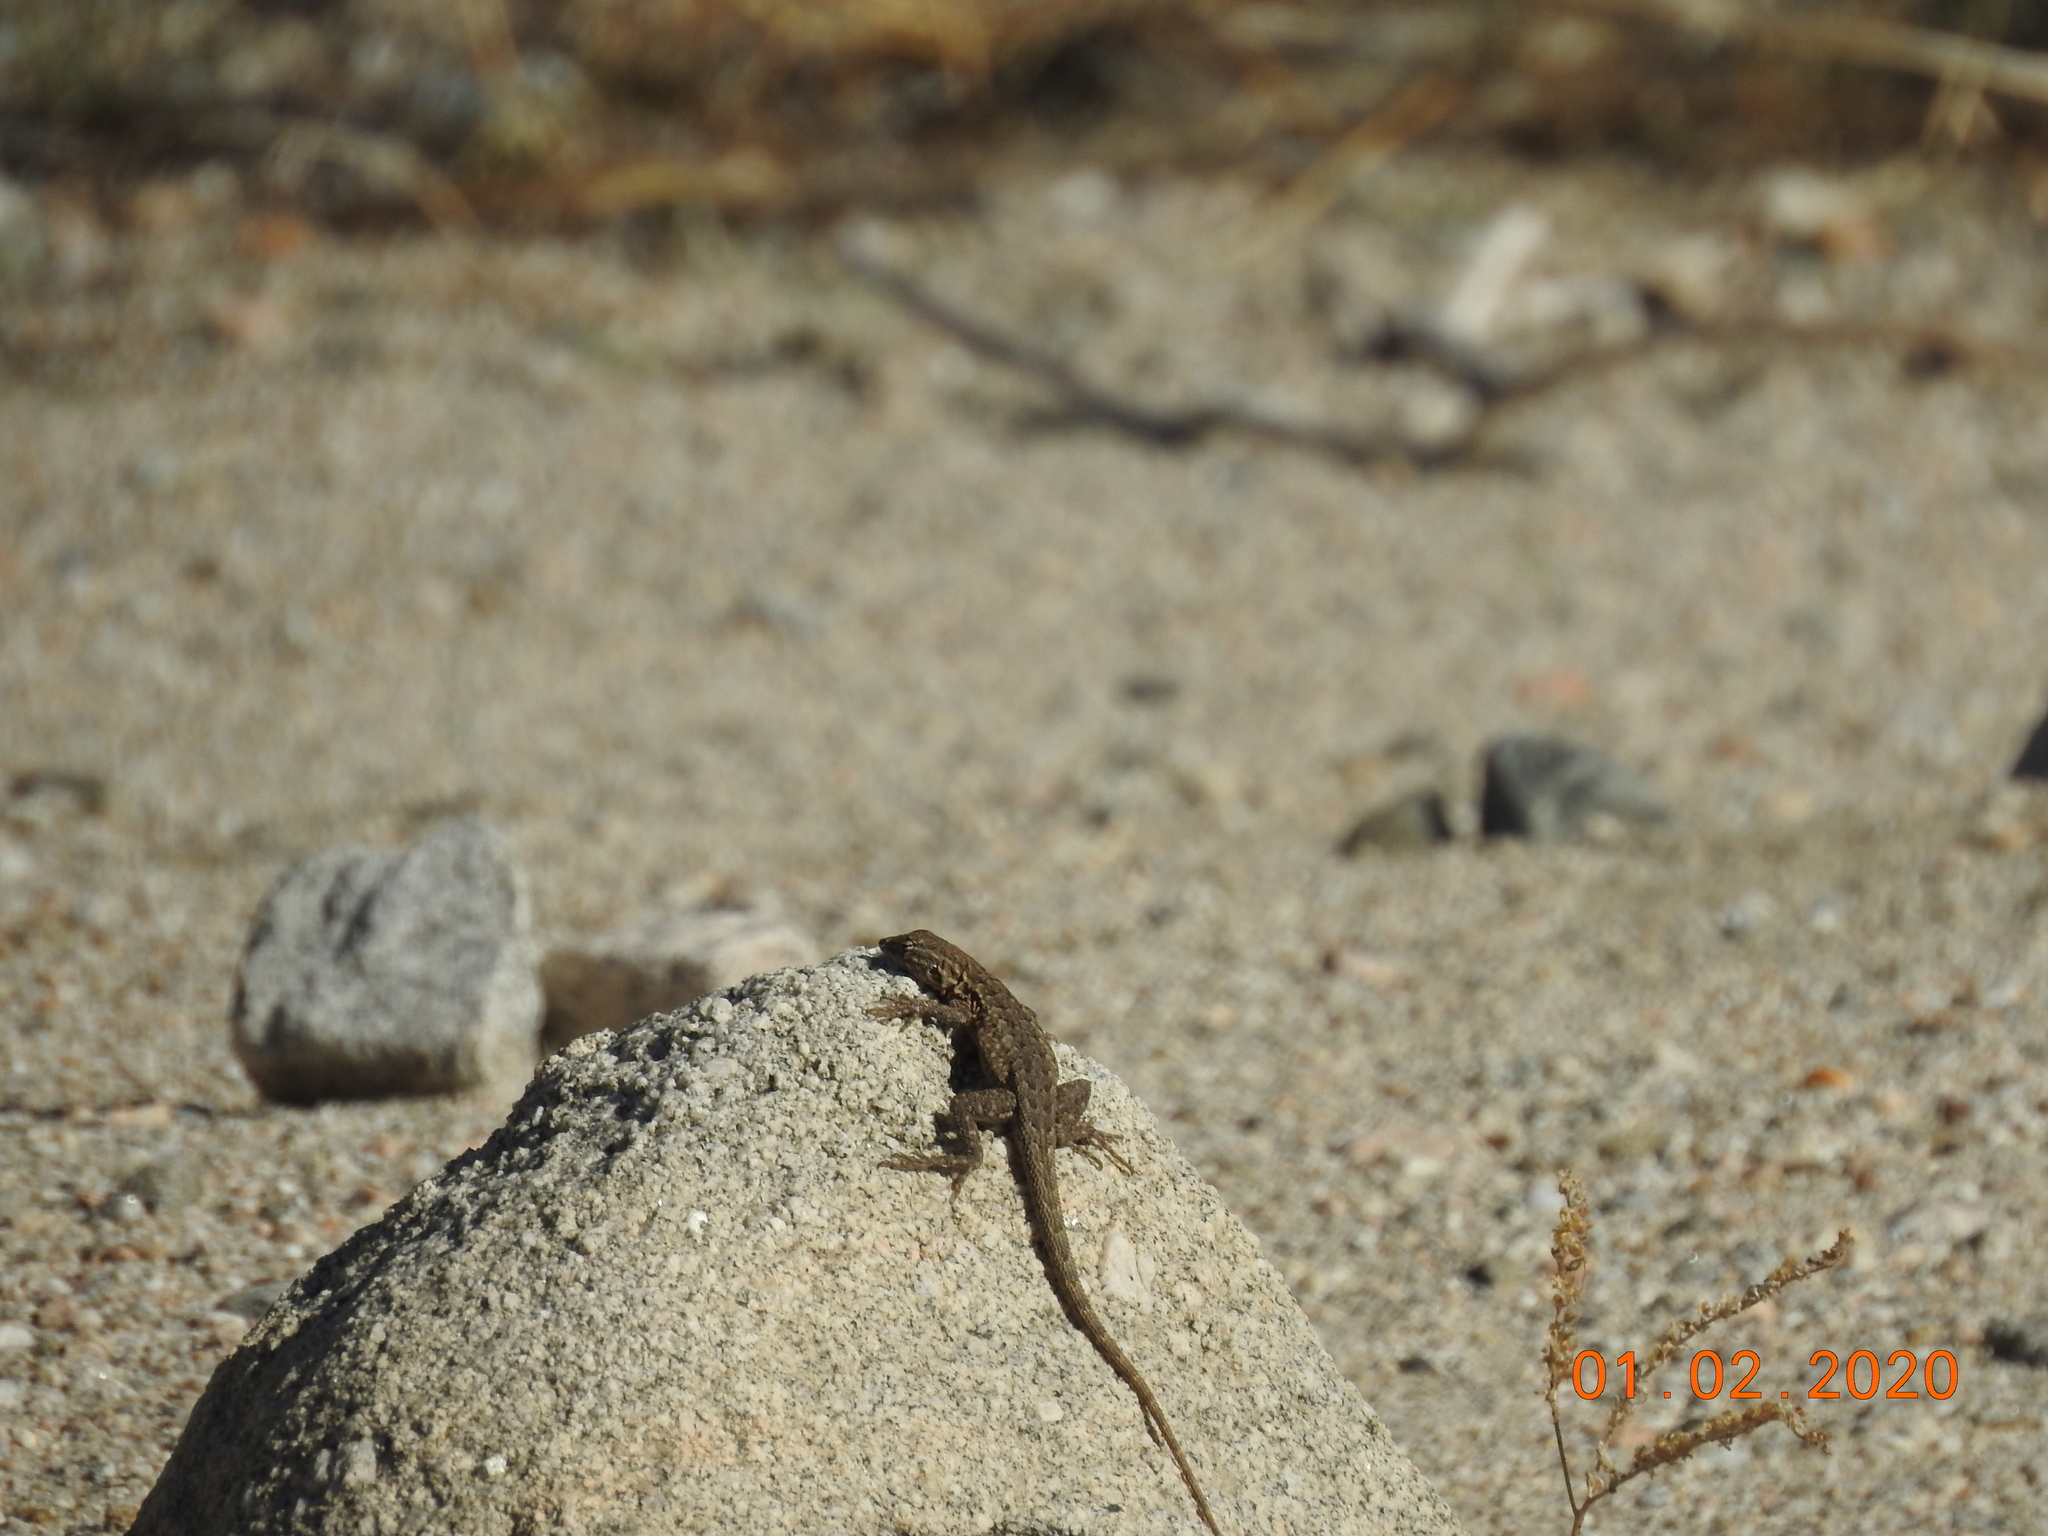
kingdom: Animalia
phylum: Chordata
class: Squamata
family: Phrynosomatidae
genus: Uta
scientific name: Uta stansburiana
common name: Side-blotched lizard
